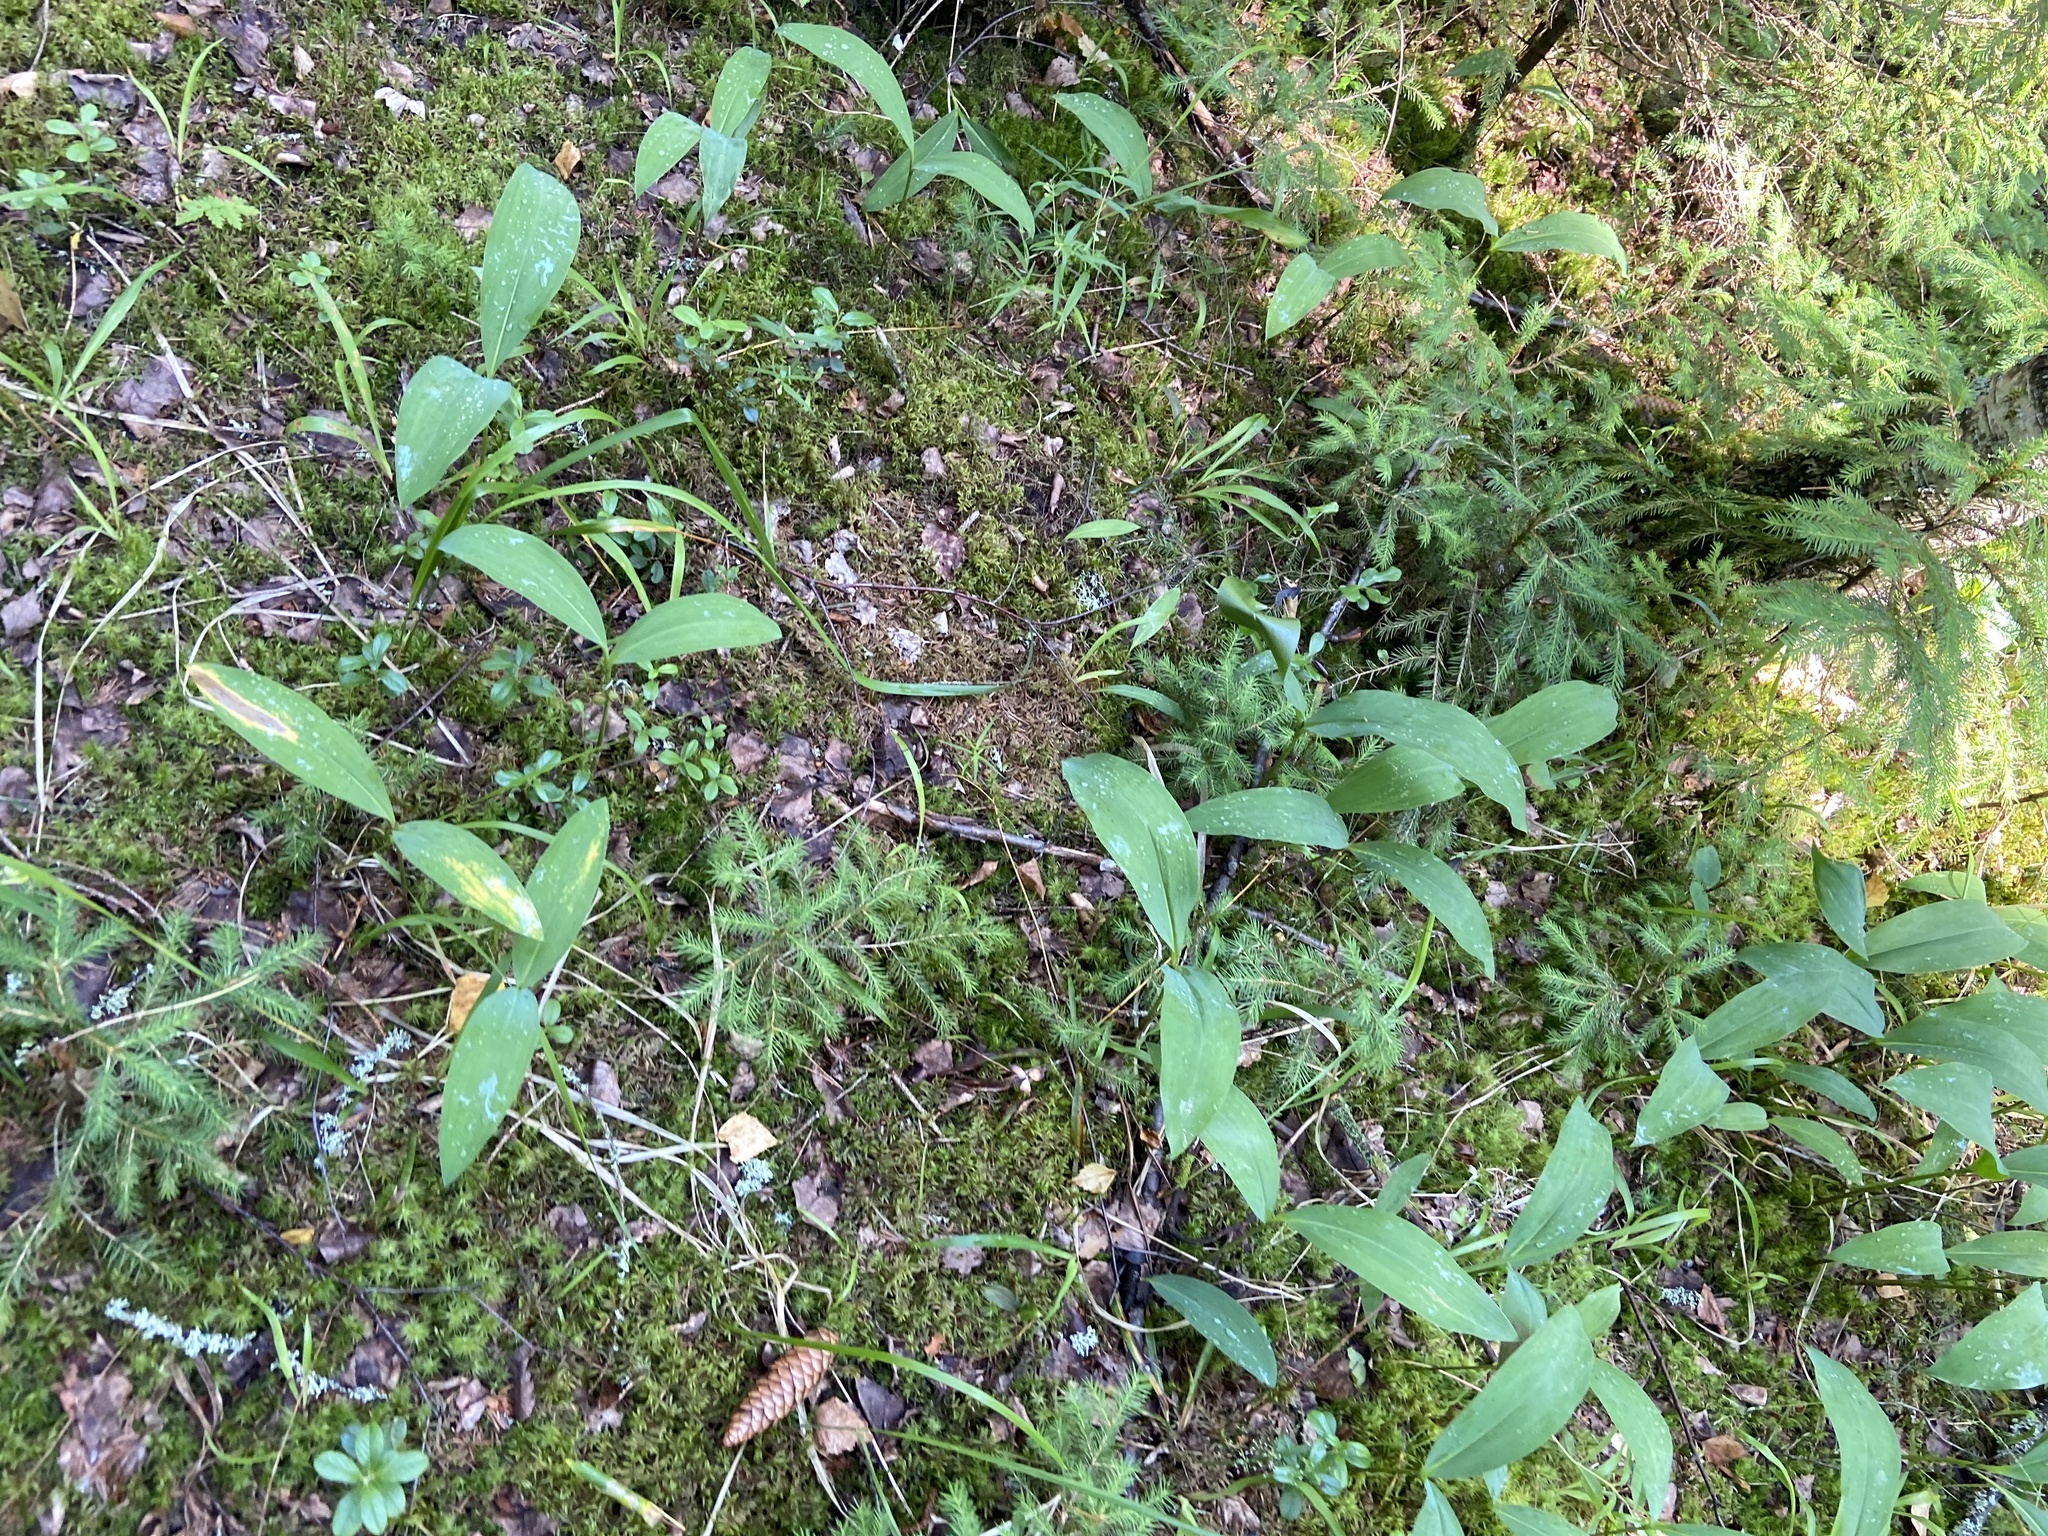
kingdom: Plantae
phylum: Tracheophyta
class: Liliopsida
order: Asparagales
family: Asparagaceae
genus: Convallaria
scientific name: Convallaria majalis
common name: Lily-of-the-valley
